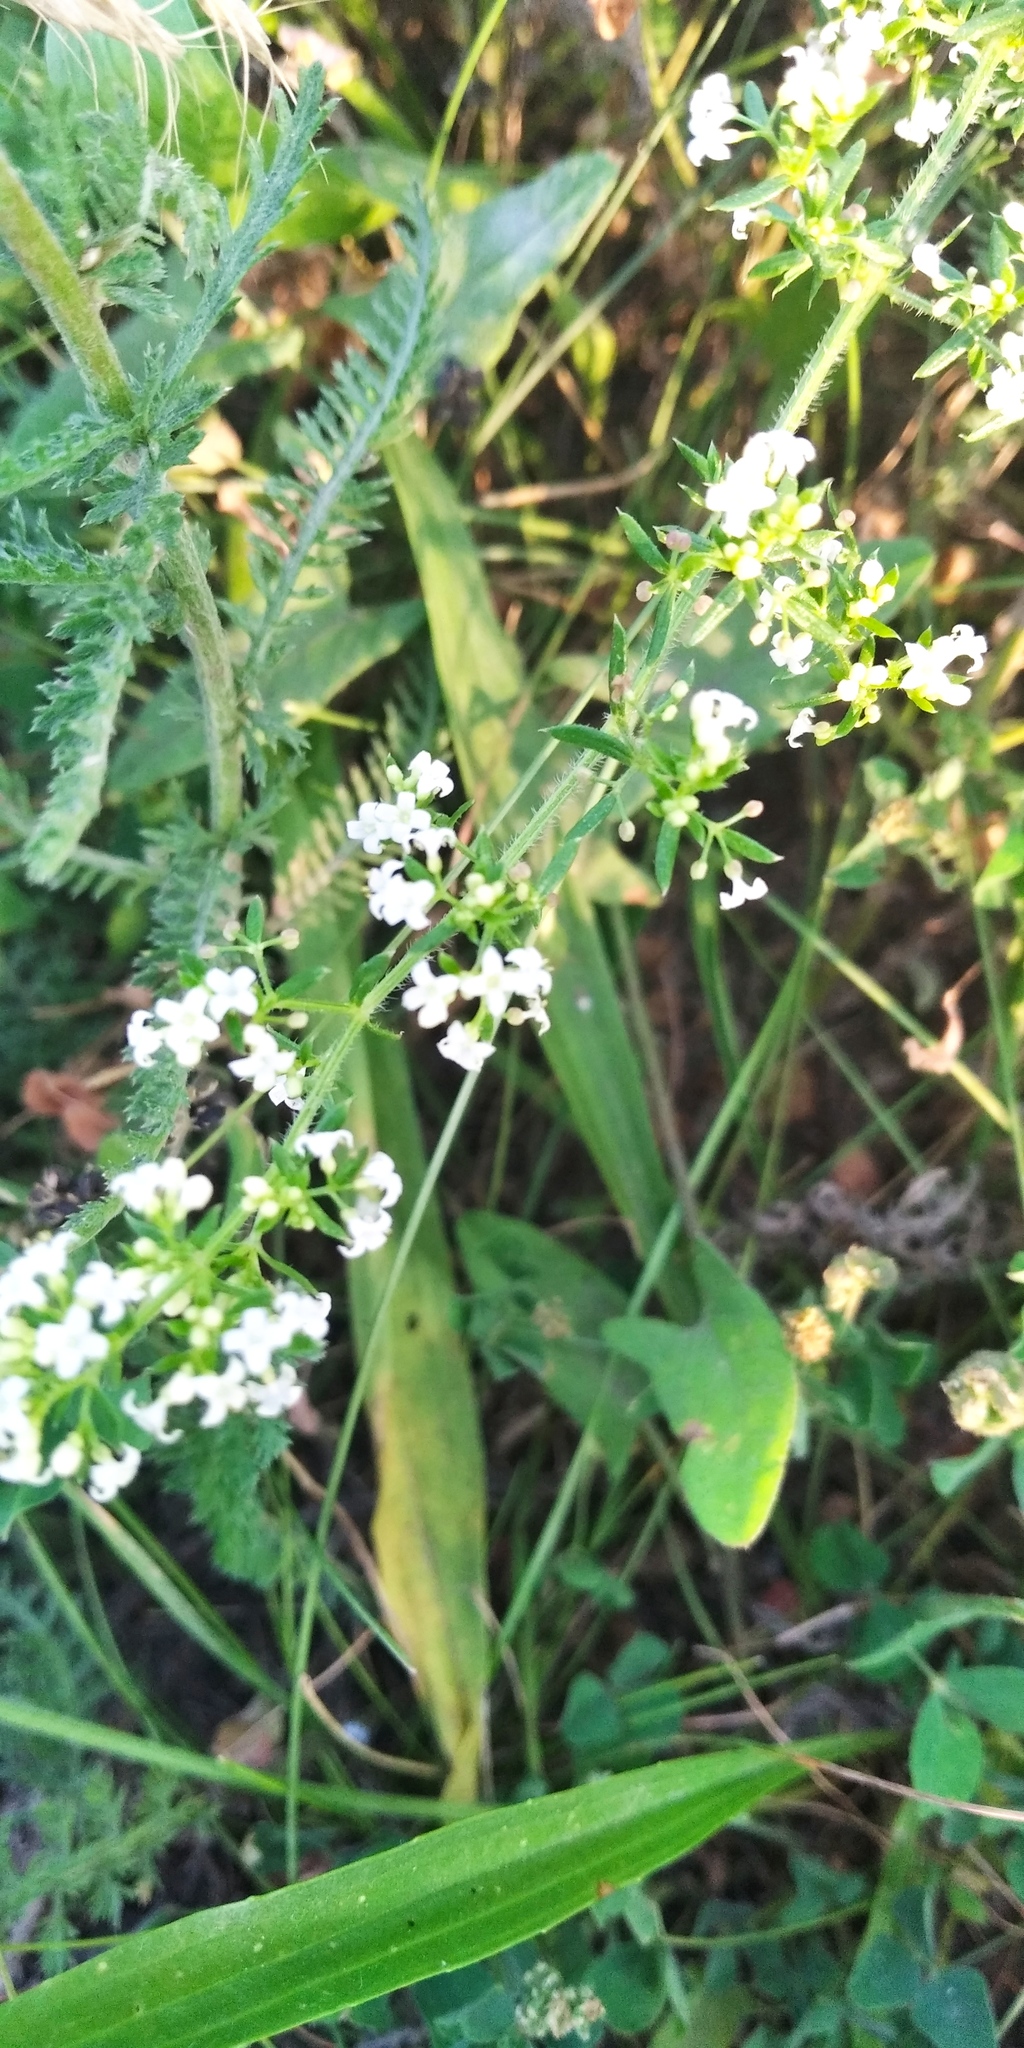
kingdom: Plantae
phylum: Tracheophyta
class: Magnoliopsida
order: Gentianales
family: Rubiaceae
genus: Galium
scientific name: Galium humifusum
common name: Spreading bedstraw
